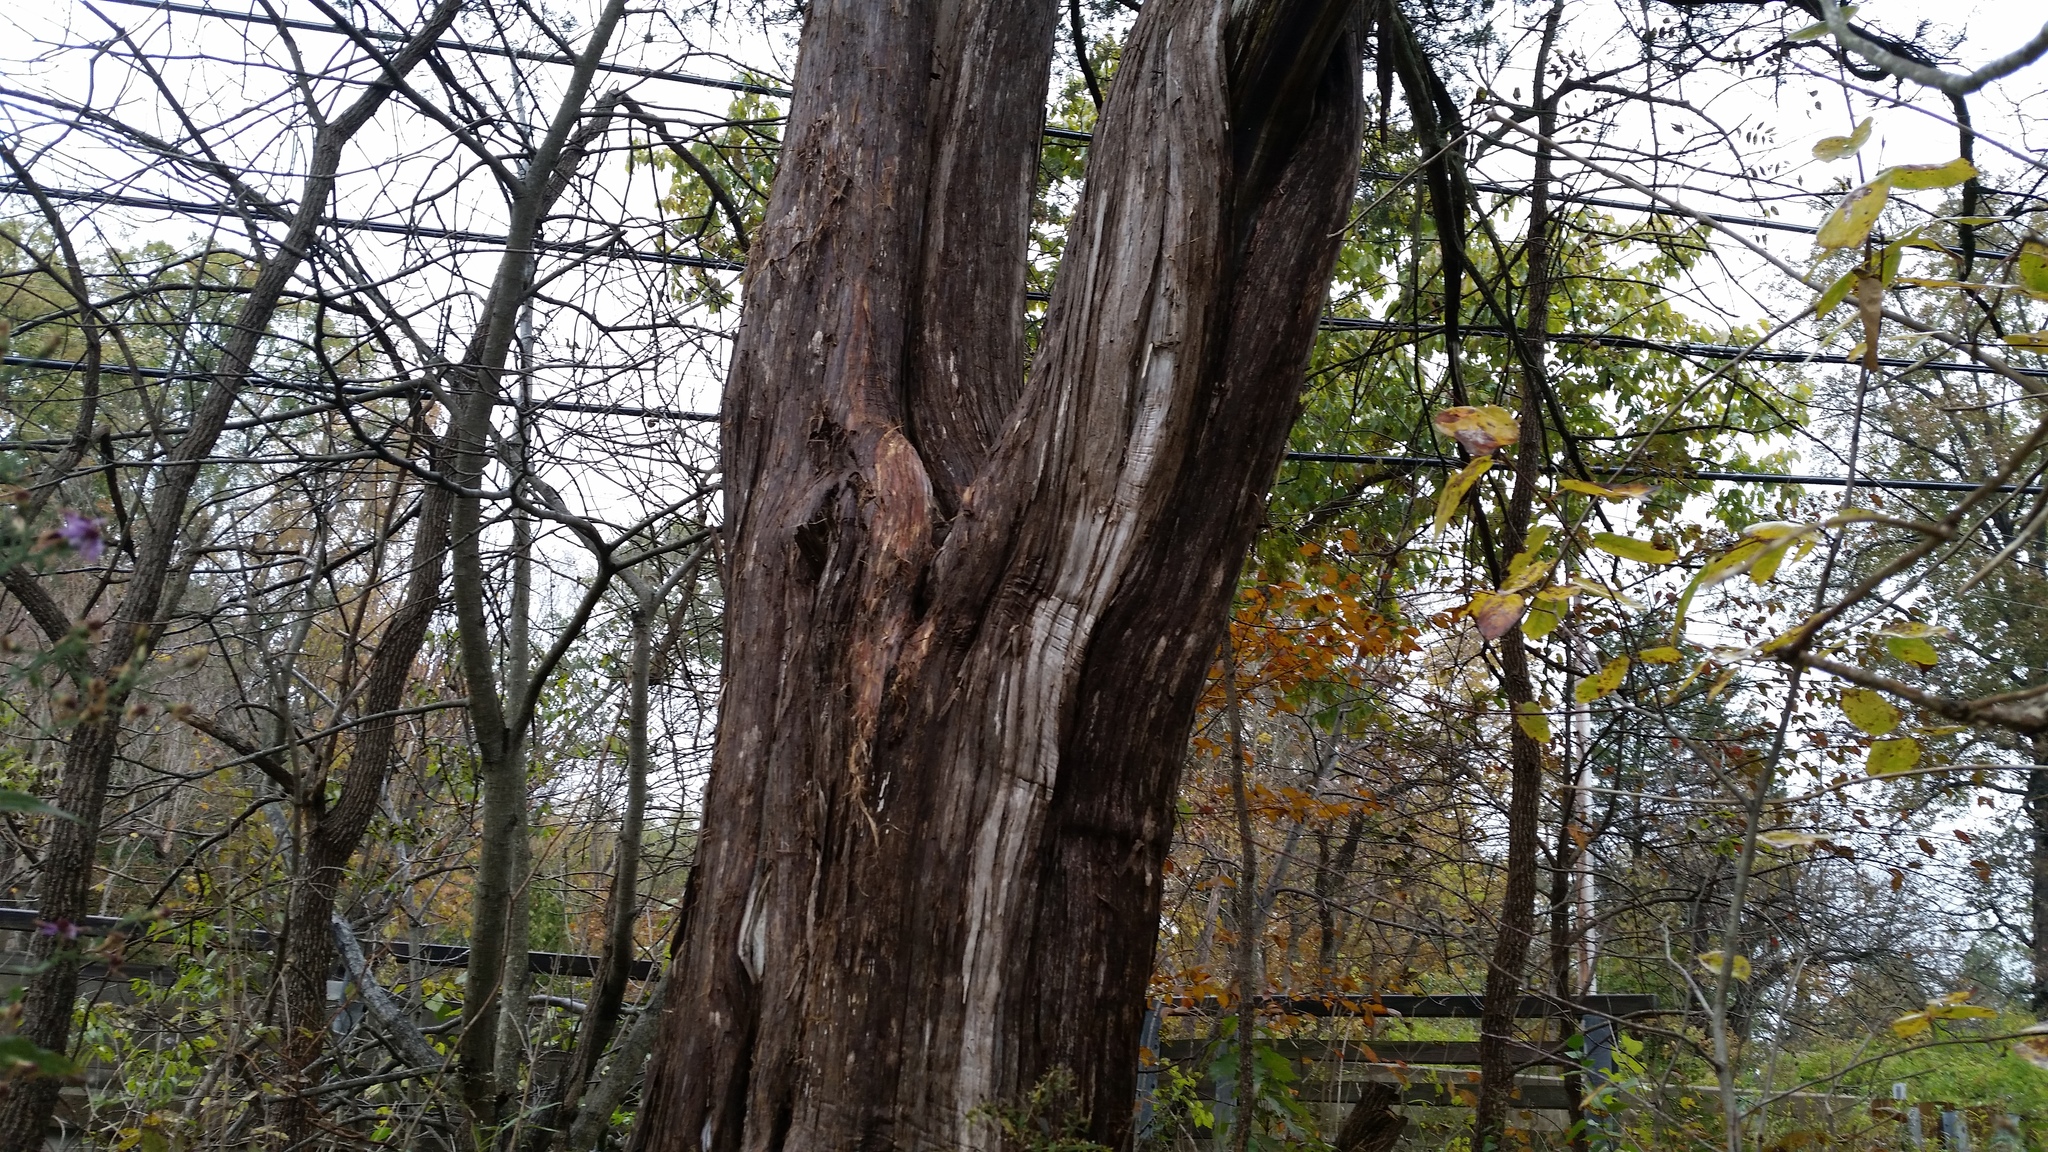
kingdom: Fungi
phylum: Ascomycota
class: Dothideomycetes
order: Hysteriales
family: Hysteriaceae
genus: Hysterium
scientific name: Hysterium angustatum
